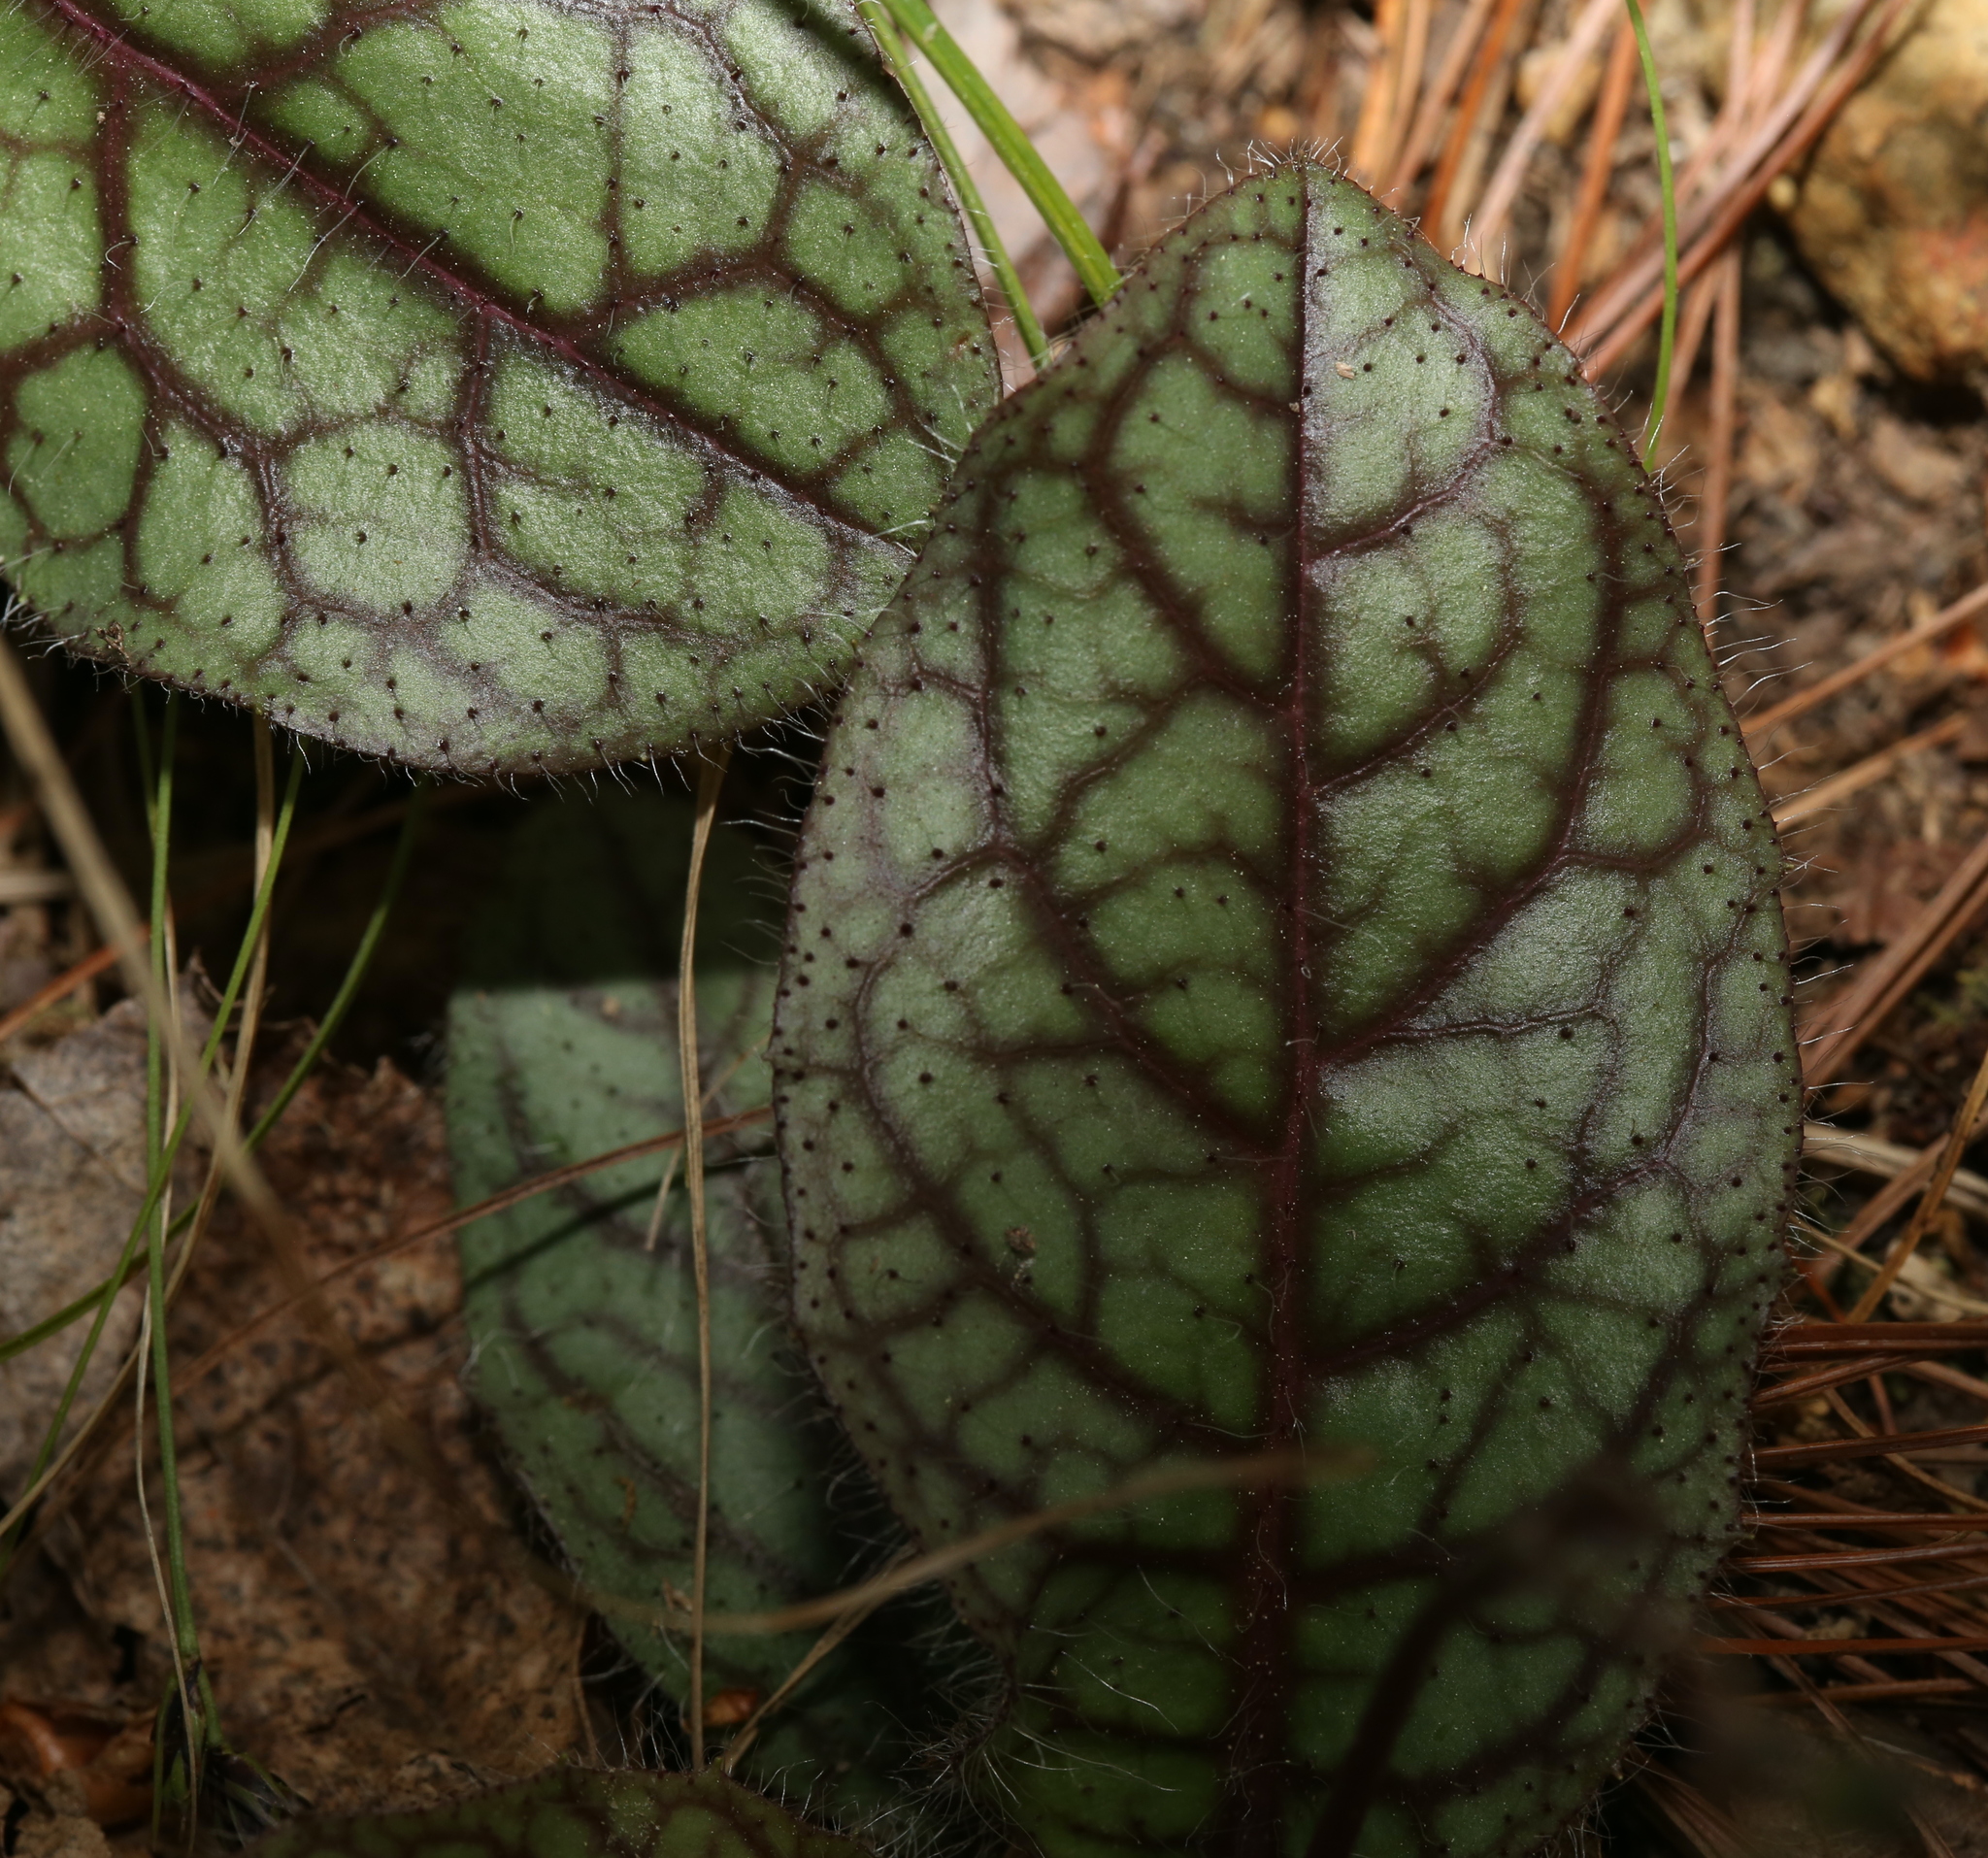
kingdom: Plantae
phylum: Tracheophyta
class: Magnoliopsida
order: Asterales
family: Asteraceae
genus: Hieracium
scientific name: Hieracium venosum
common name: Rattlesnake hawkweed
